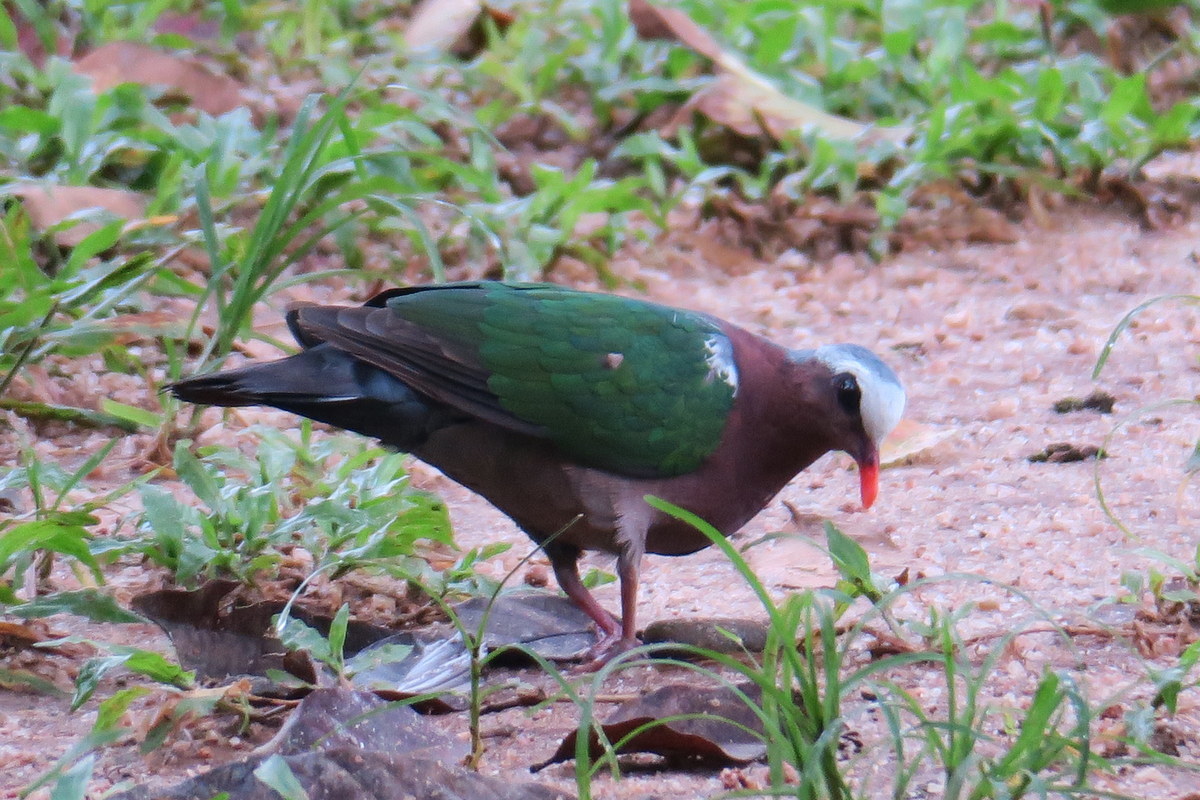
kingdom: Animalia
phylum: Chordata
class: Aves
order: Columbiformes
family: Columbidae
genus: Chalcophaps
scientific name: Chalcophaps indica
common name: Common emerald dove
